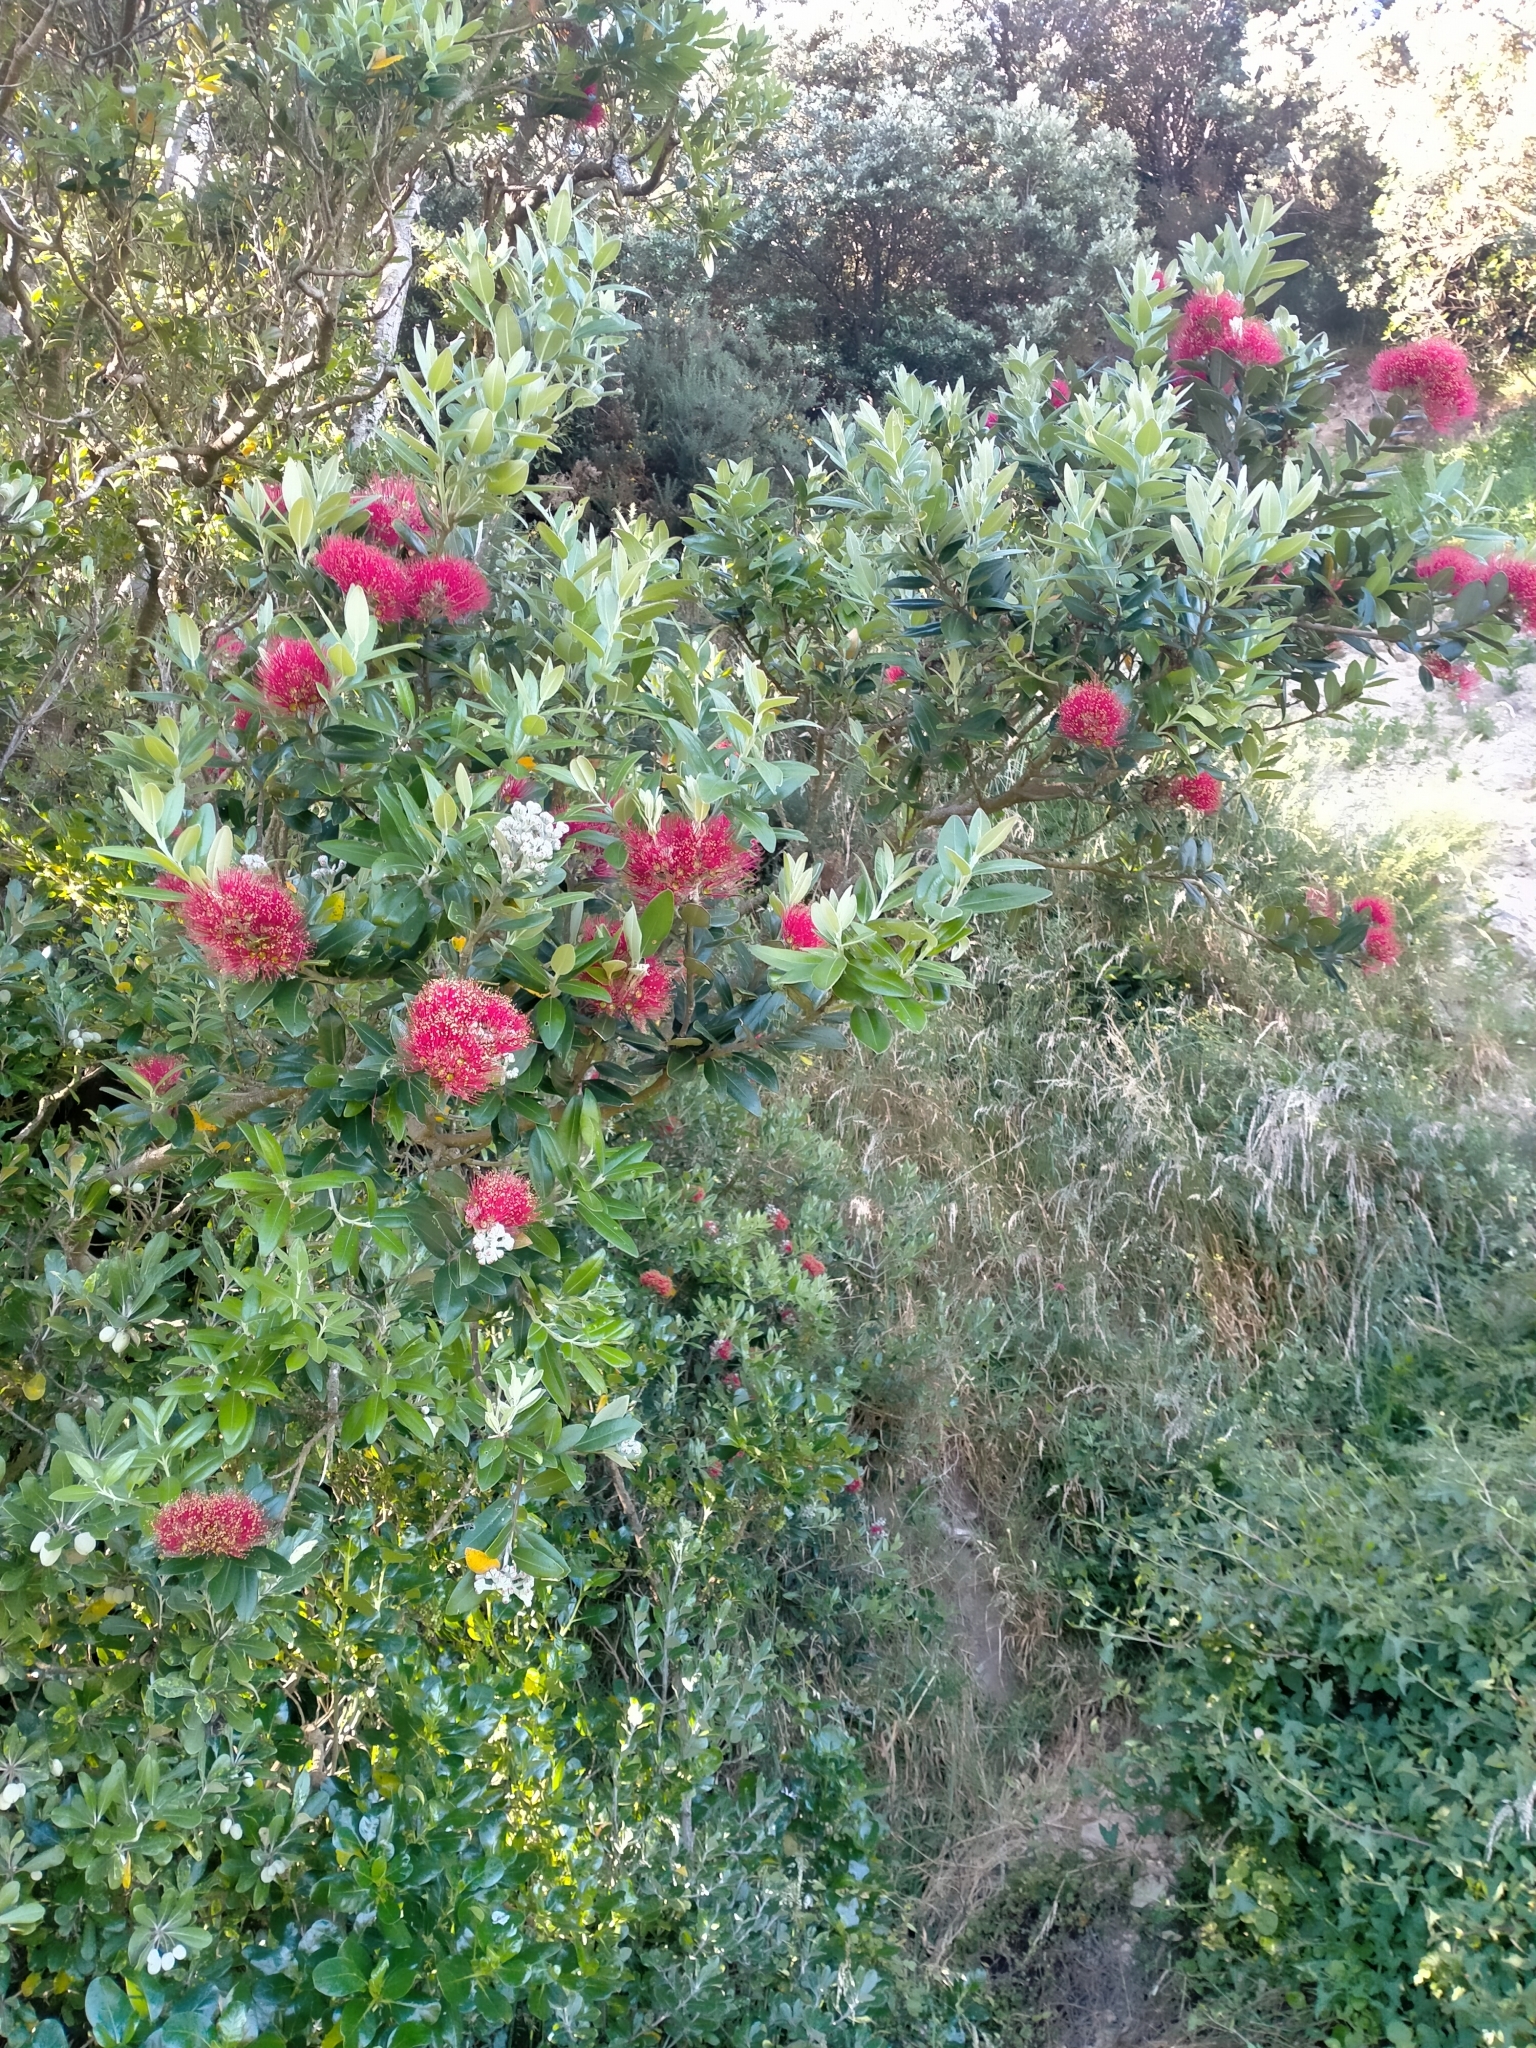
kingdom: Plantae
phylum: Tracheophyta
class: Magnoliopsida
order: Myrtales
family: Myrtaceae
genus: Metrosideros
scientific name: Metrosideros excelsa
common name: New zealand christmastree
